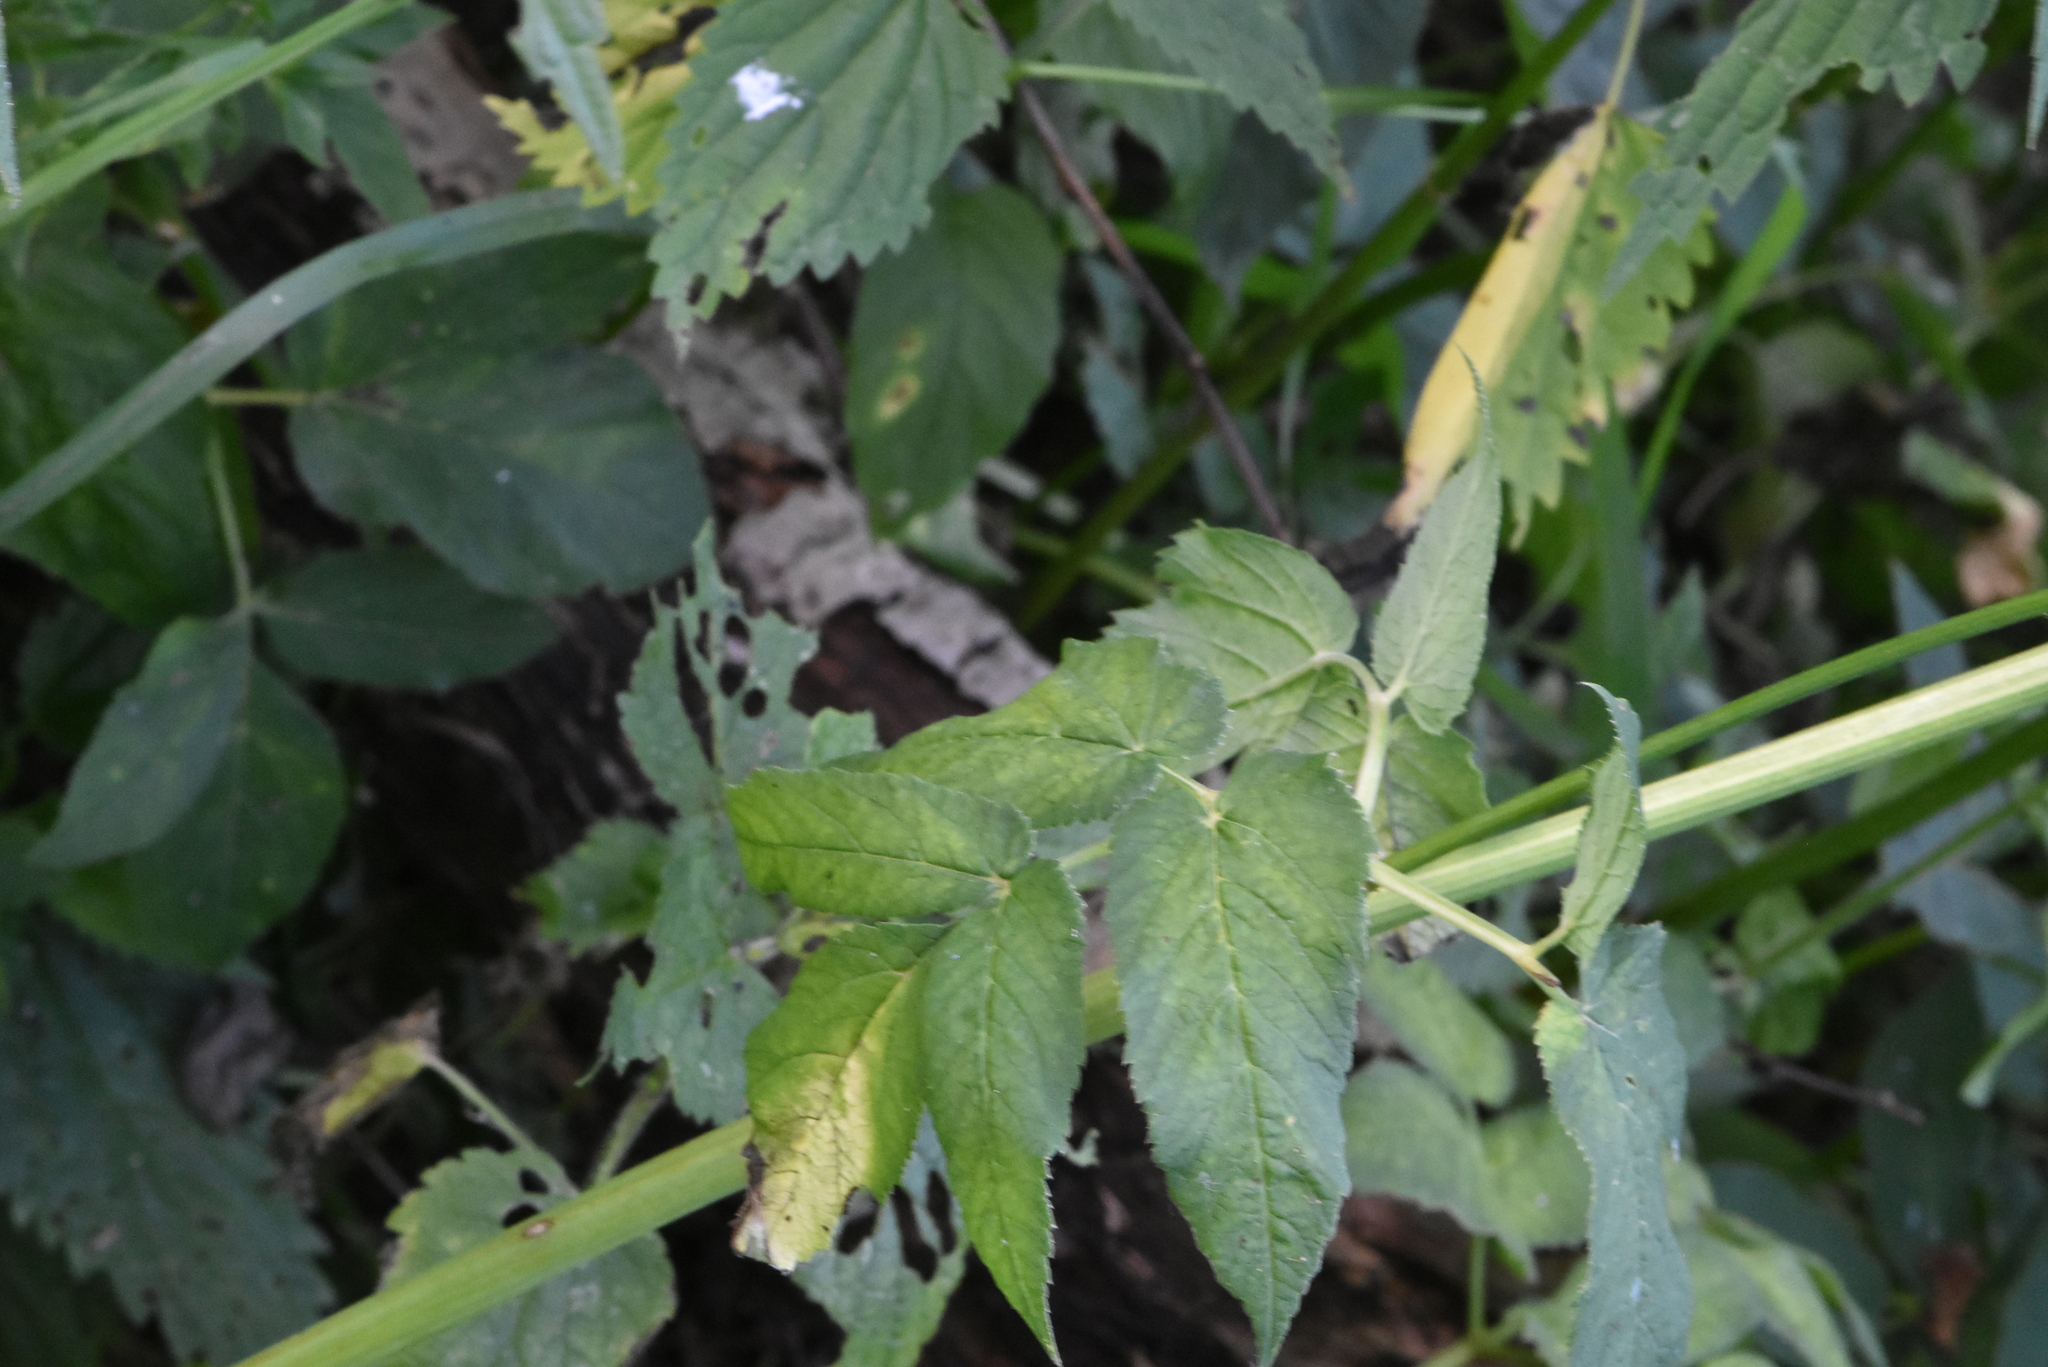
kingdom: Plantae
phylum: Tracheophyta
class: Magnoliopsida
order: Apiales
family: Apiaceae
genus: Aegopodium
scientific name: Aegopodium podagraria
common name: Ground-elder
